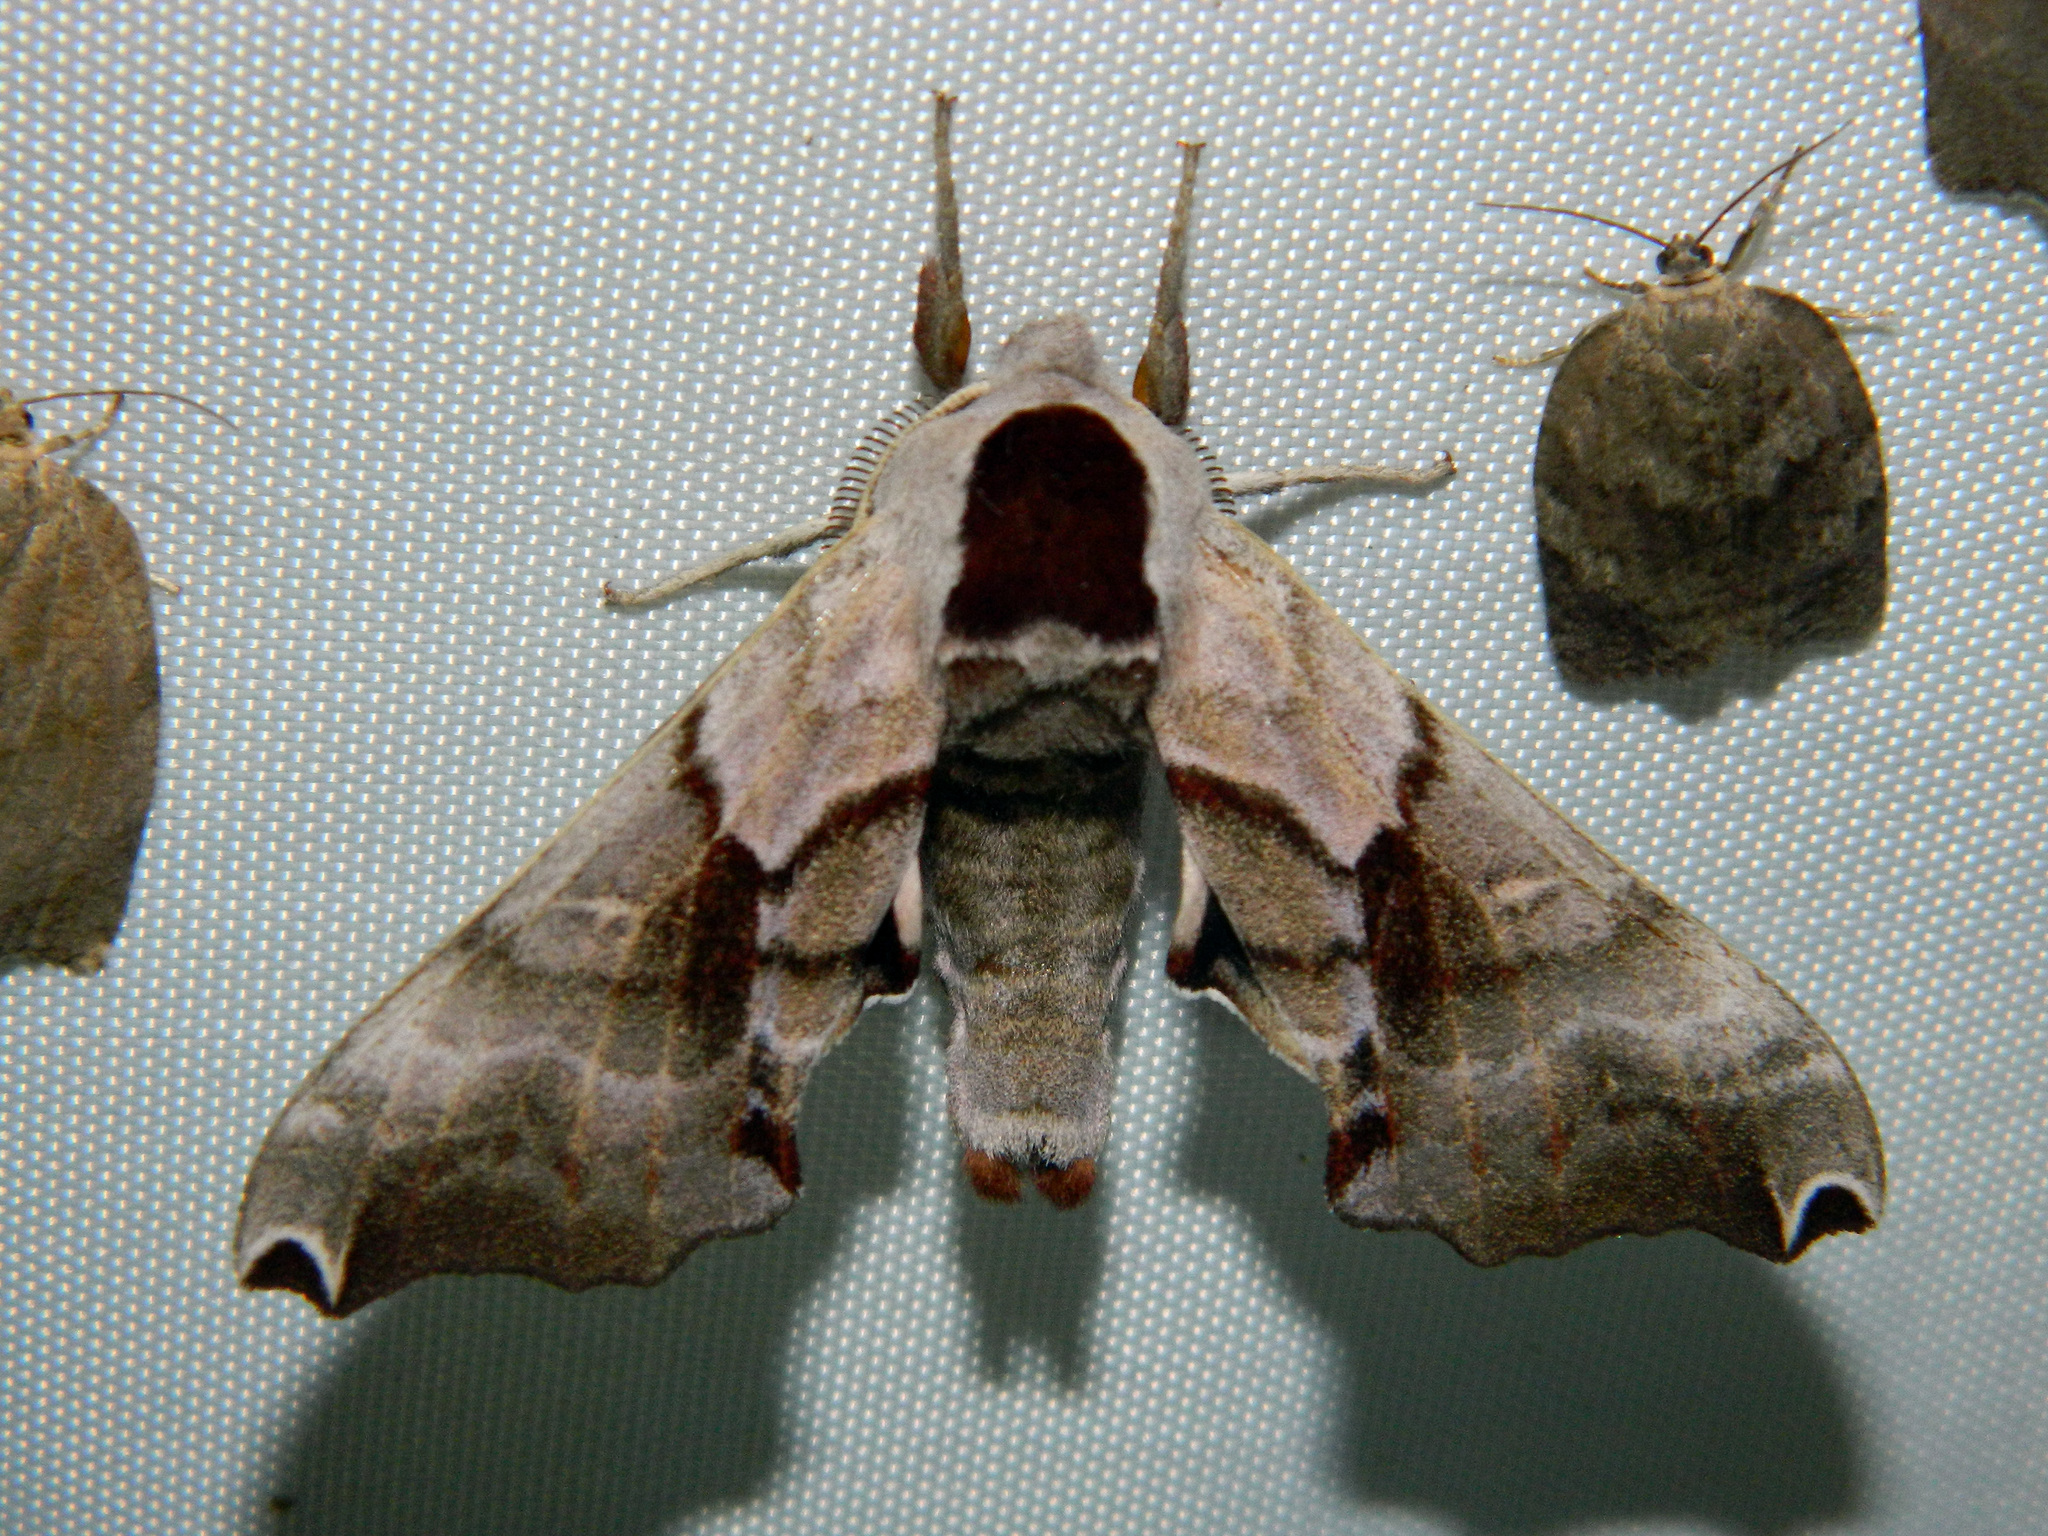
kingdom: Animalia
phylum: Arthropoda
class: Insecta
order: Lepidoptera
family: Sphingidae
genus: Smerinthus
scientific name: Smerinthus jamaicensis
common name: Twin spotted sphinx
